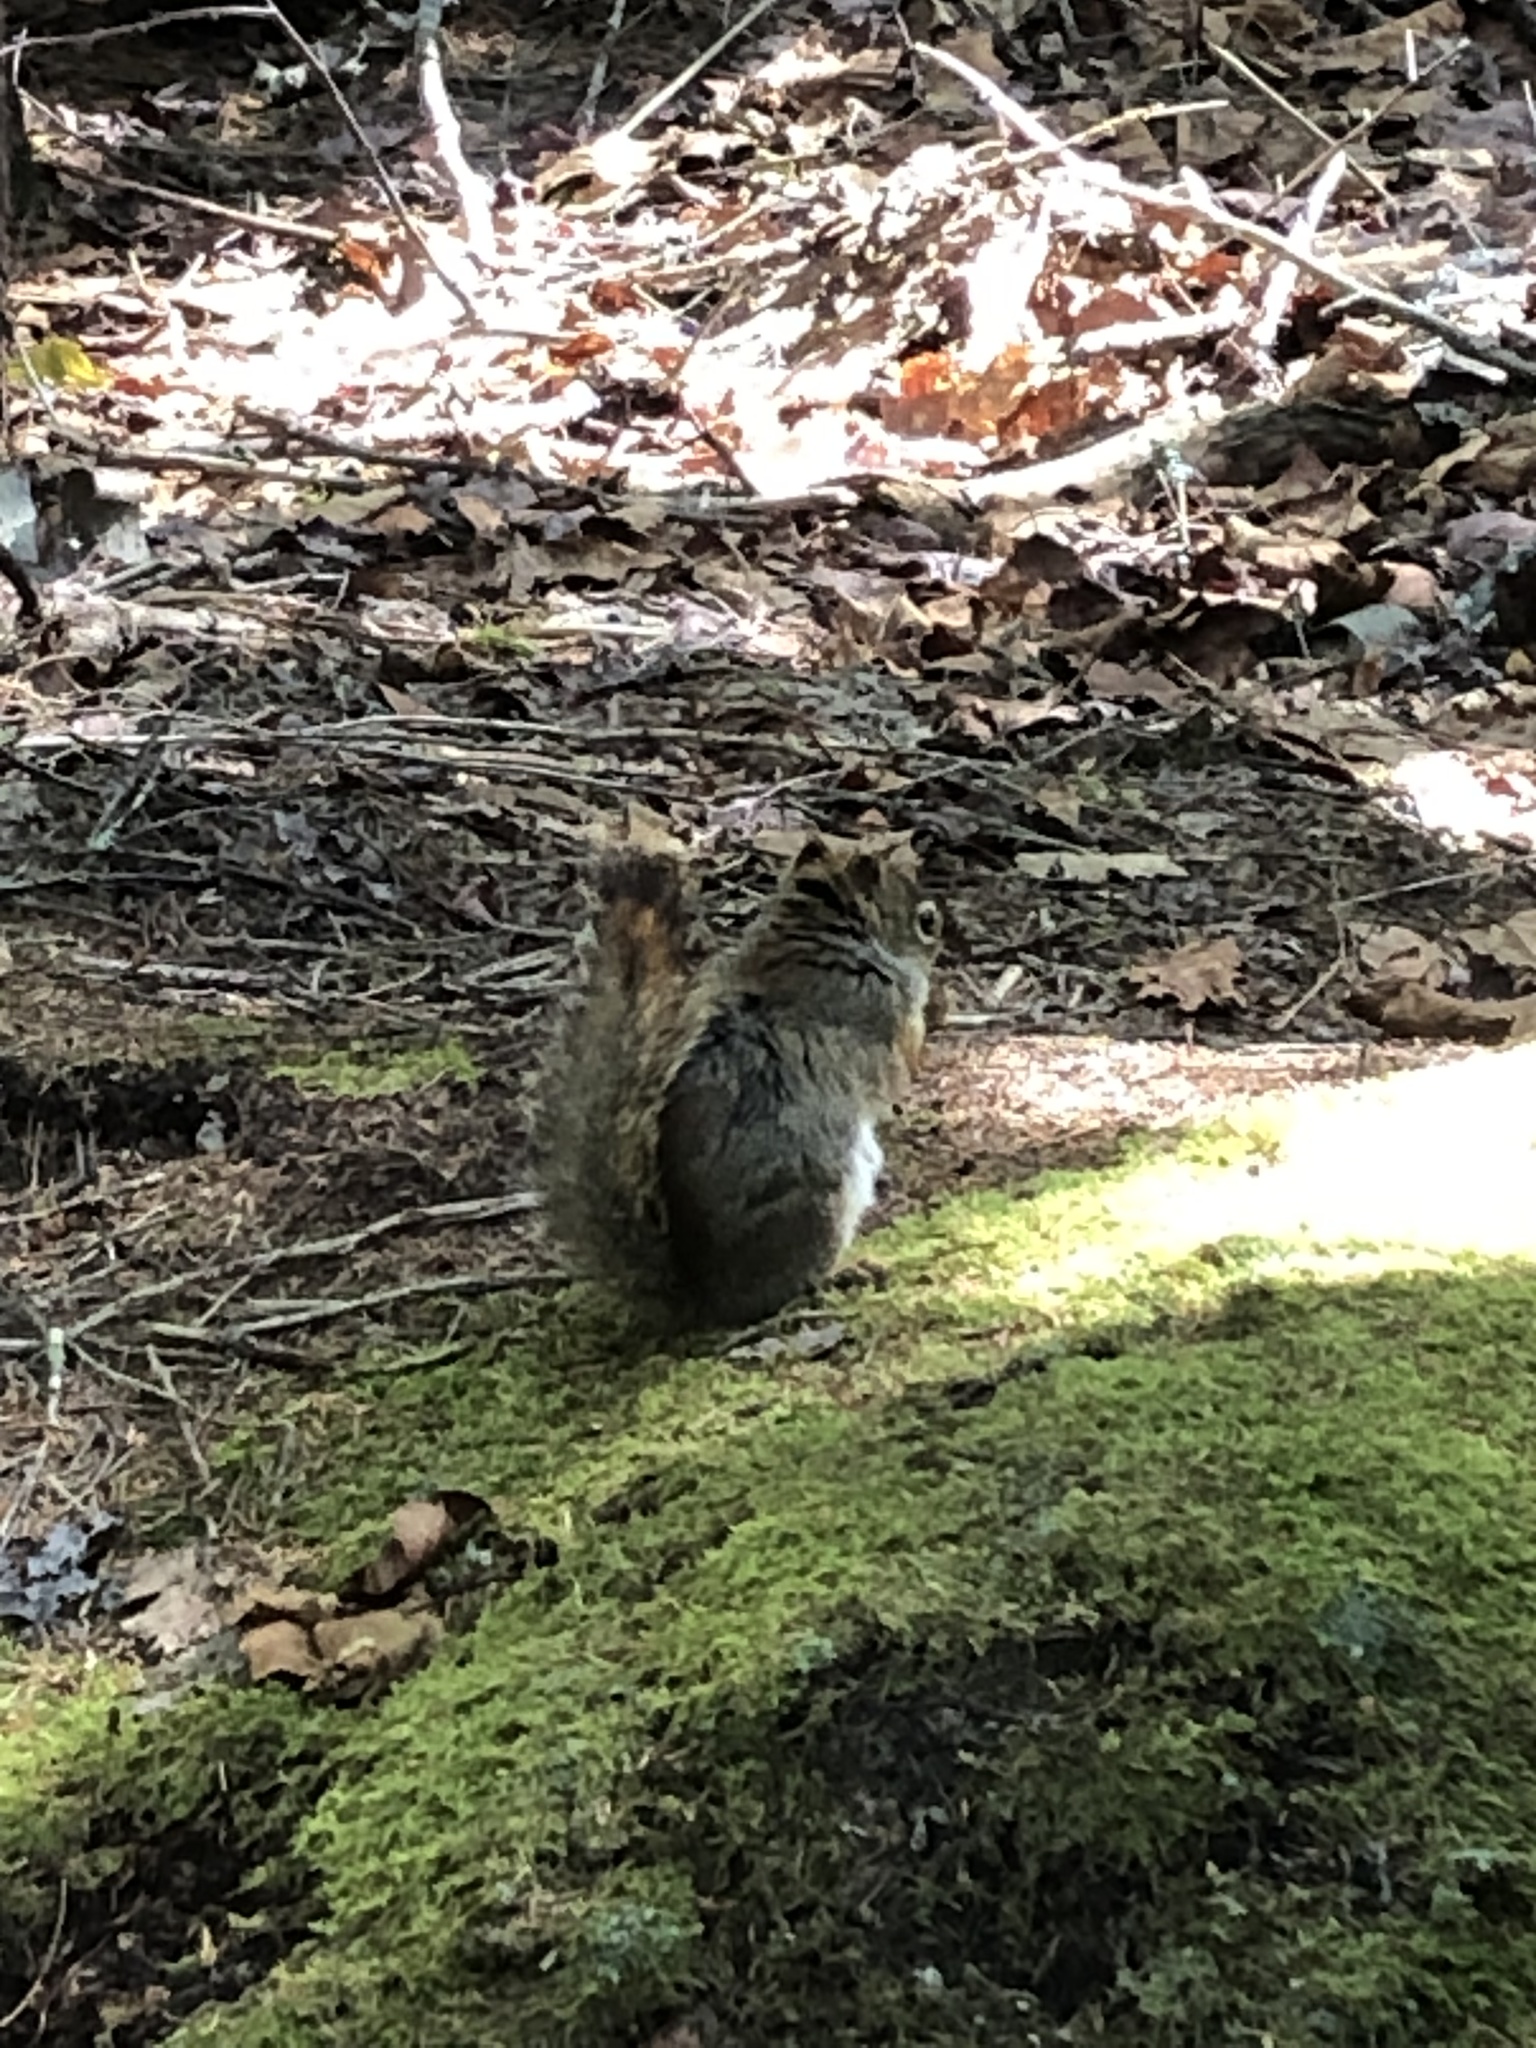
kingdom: Animalia
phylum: Chordata
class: Mammalia
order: Rodentia
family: Sciuridae
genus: Tamiasciurus
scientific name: Tamiasciurus hudsonicus
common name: Red squirrel
